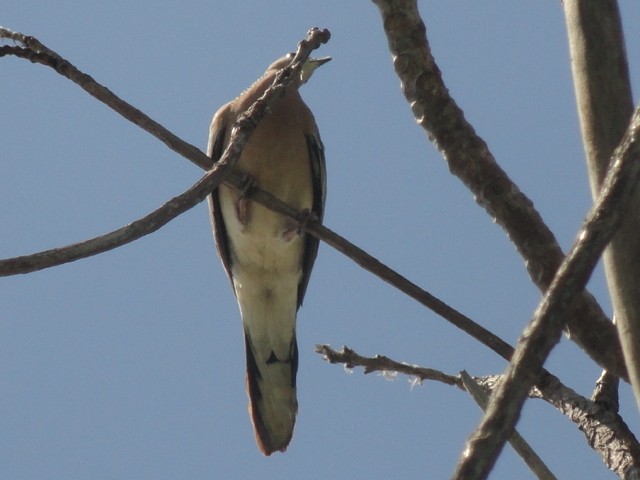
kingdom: Animalia
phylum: Chordata
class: Aves
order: Columbiformes
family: Columbidae
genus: Spilopelia
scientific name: Spilopelia chinensis
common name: Spotted dove
